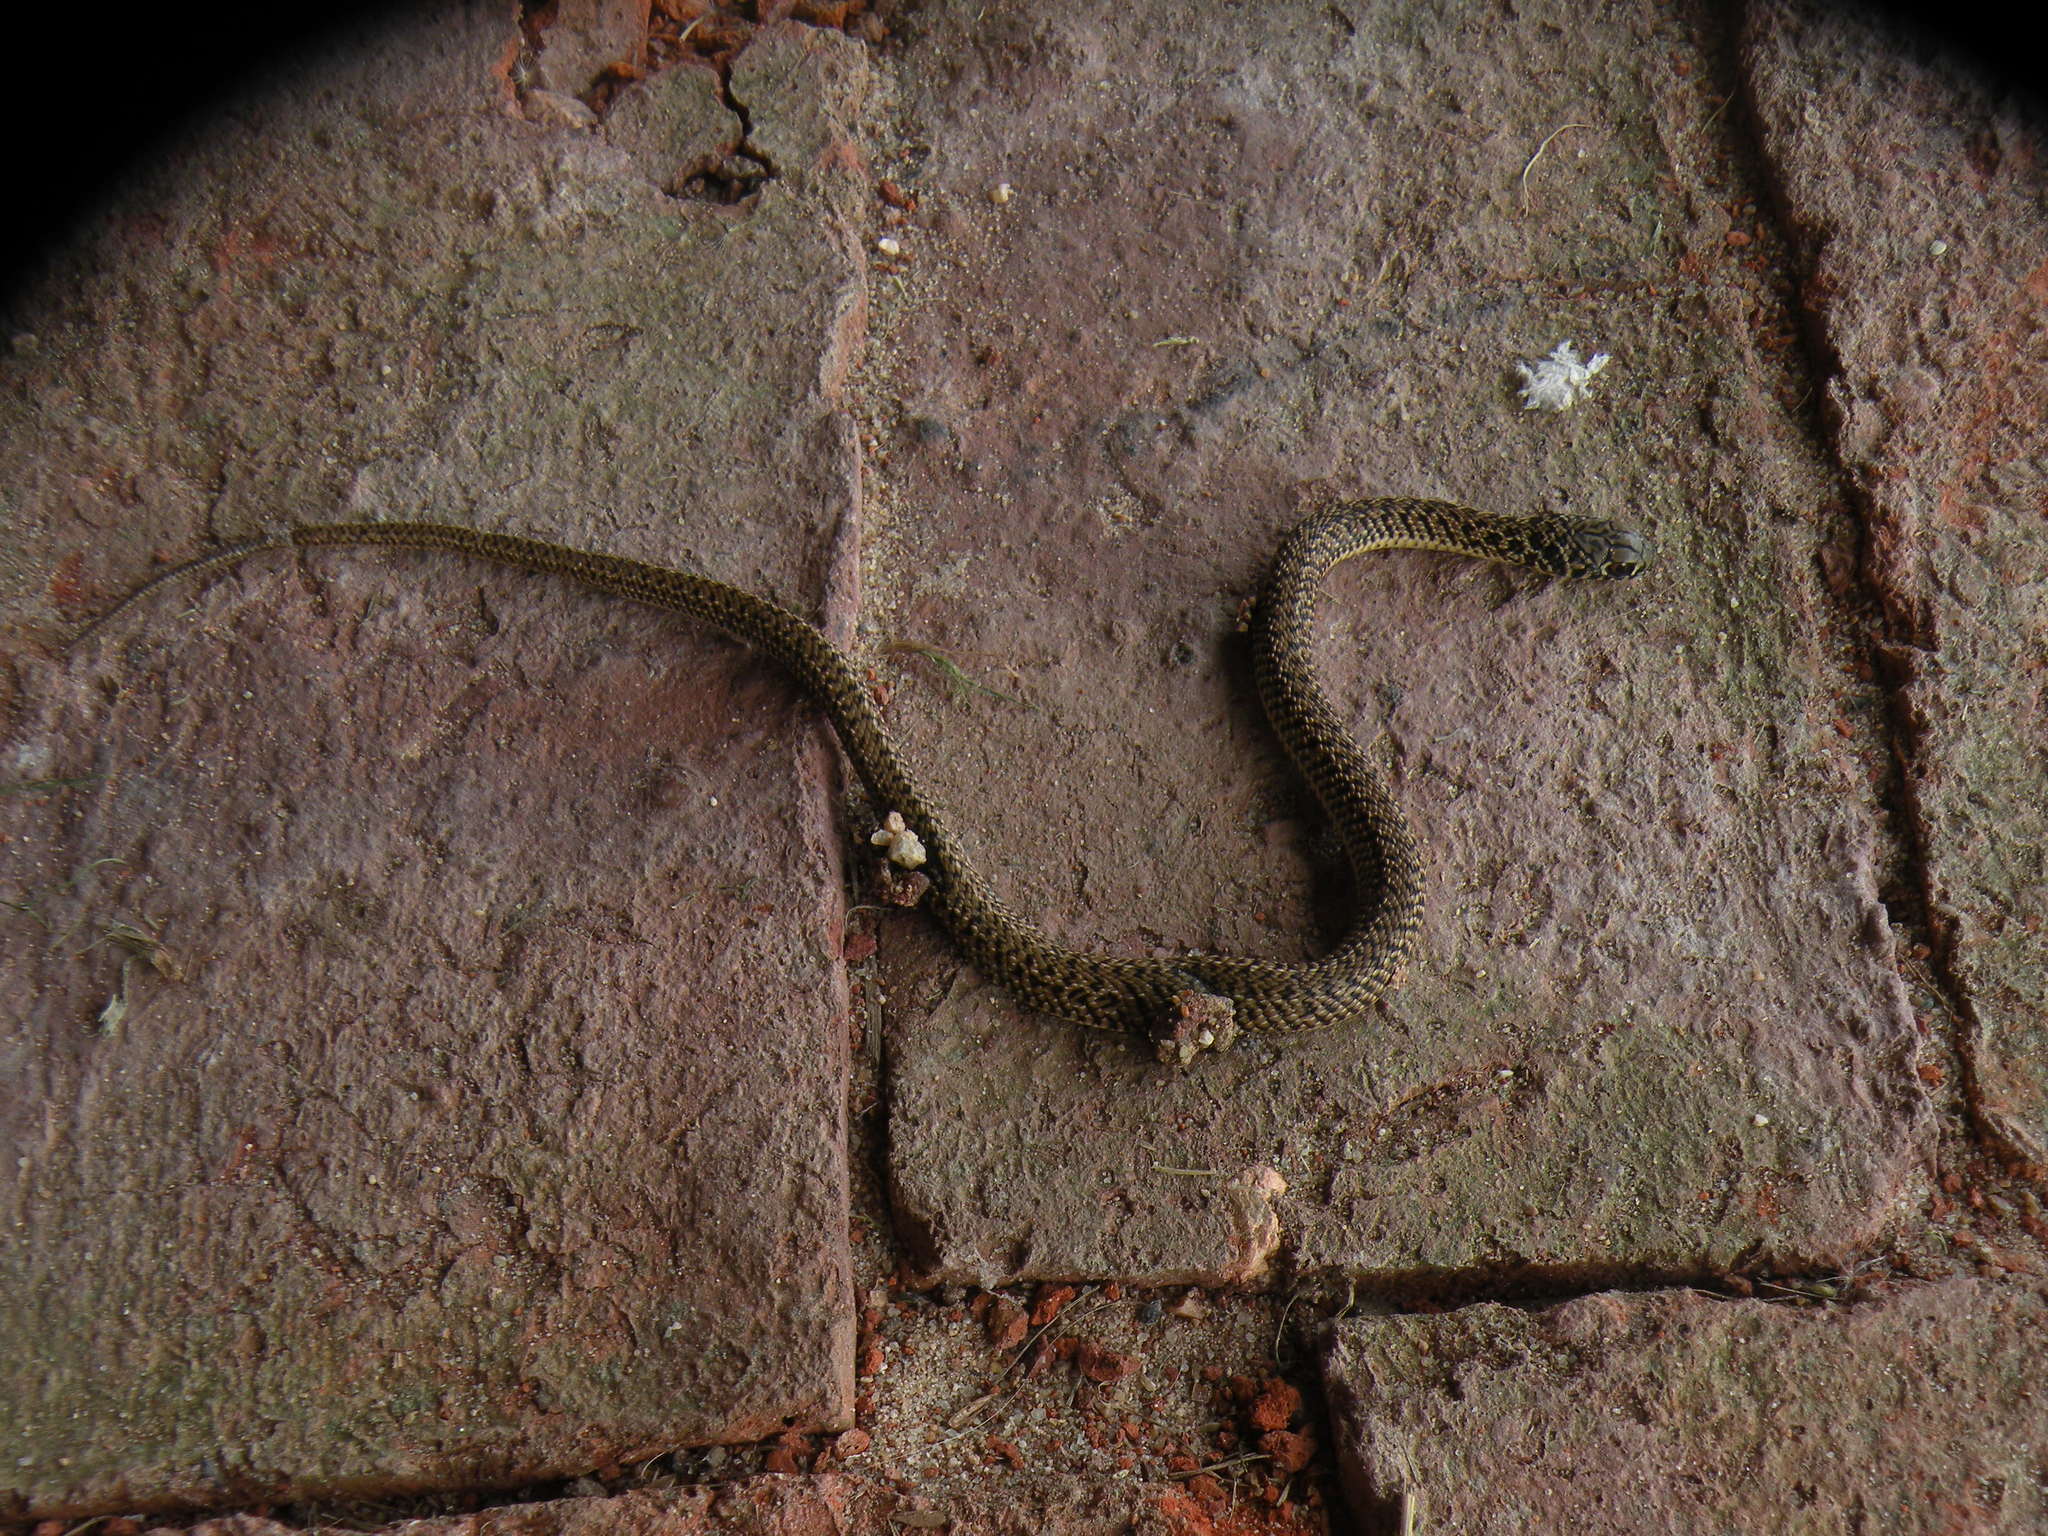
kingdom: Animalia
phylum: Chordata
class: Squamata
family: Colubridae
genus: Philodryas
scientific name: Philodryas patagoniensis
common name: Patagonia green racer
